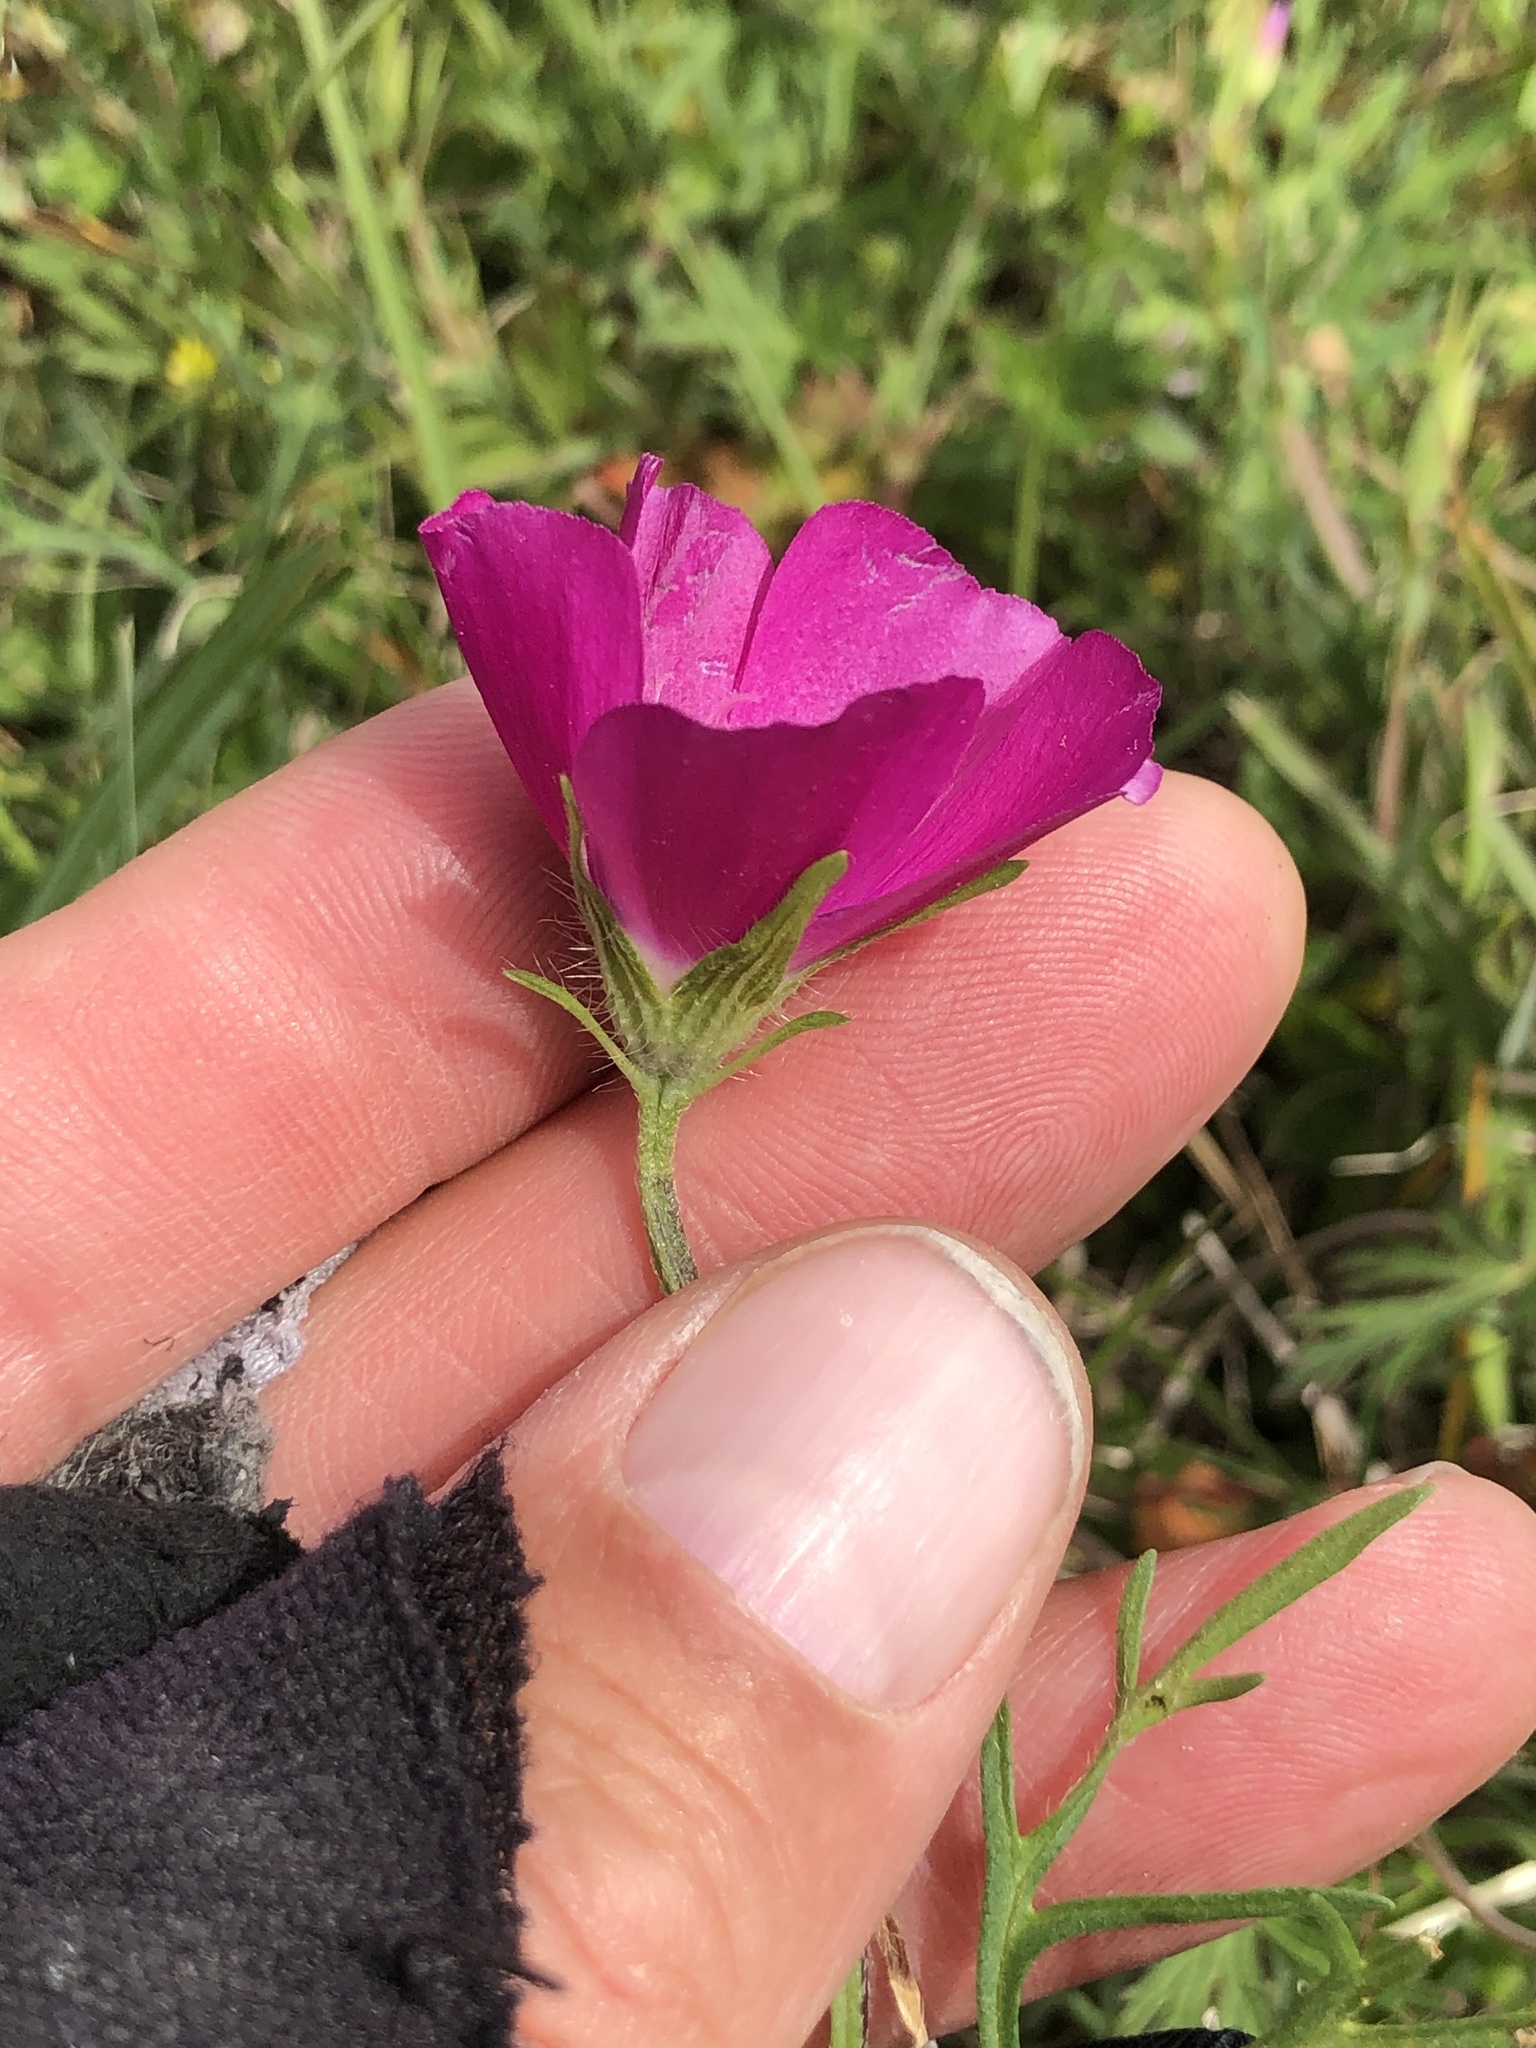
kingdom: Plantae
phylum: Tracheophyta
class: Magnoliopsida
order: Malvales
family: Malvaceae
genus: Callirhoe
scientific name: Callirhoe involucrata
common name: Purple poppy-mallow
